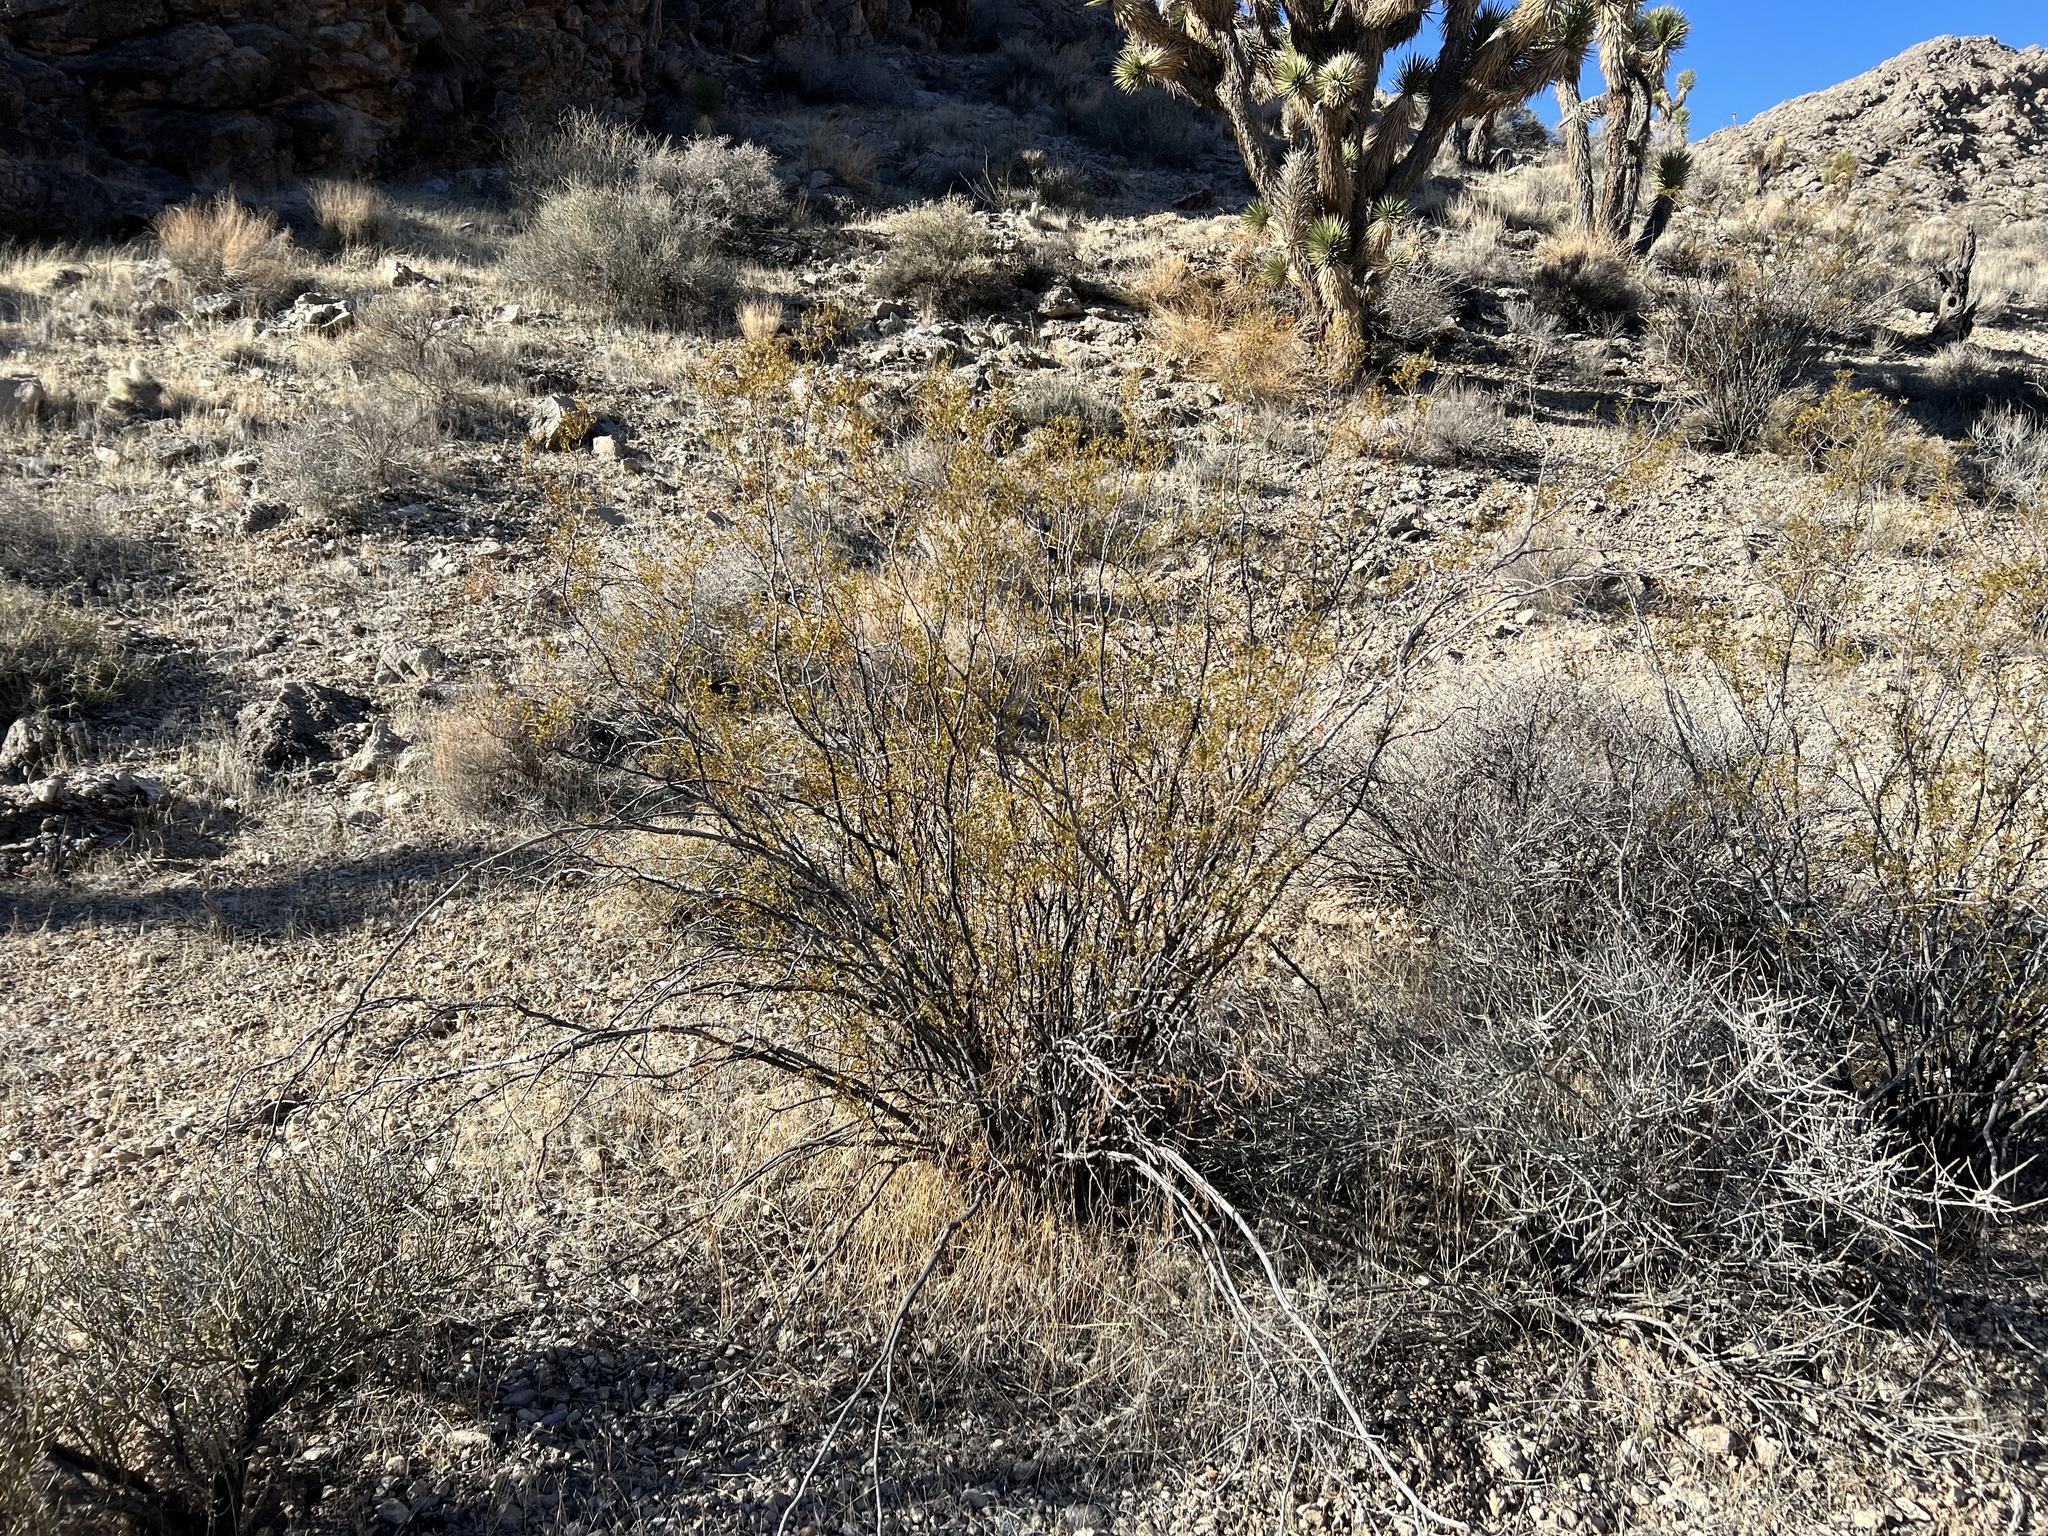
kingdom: Plantae
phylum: Tracheophyta
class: Magnoliopsida
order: Zygophyllales
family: Zygophyllaceae
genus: Larrea
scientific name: Larrea tridentata
